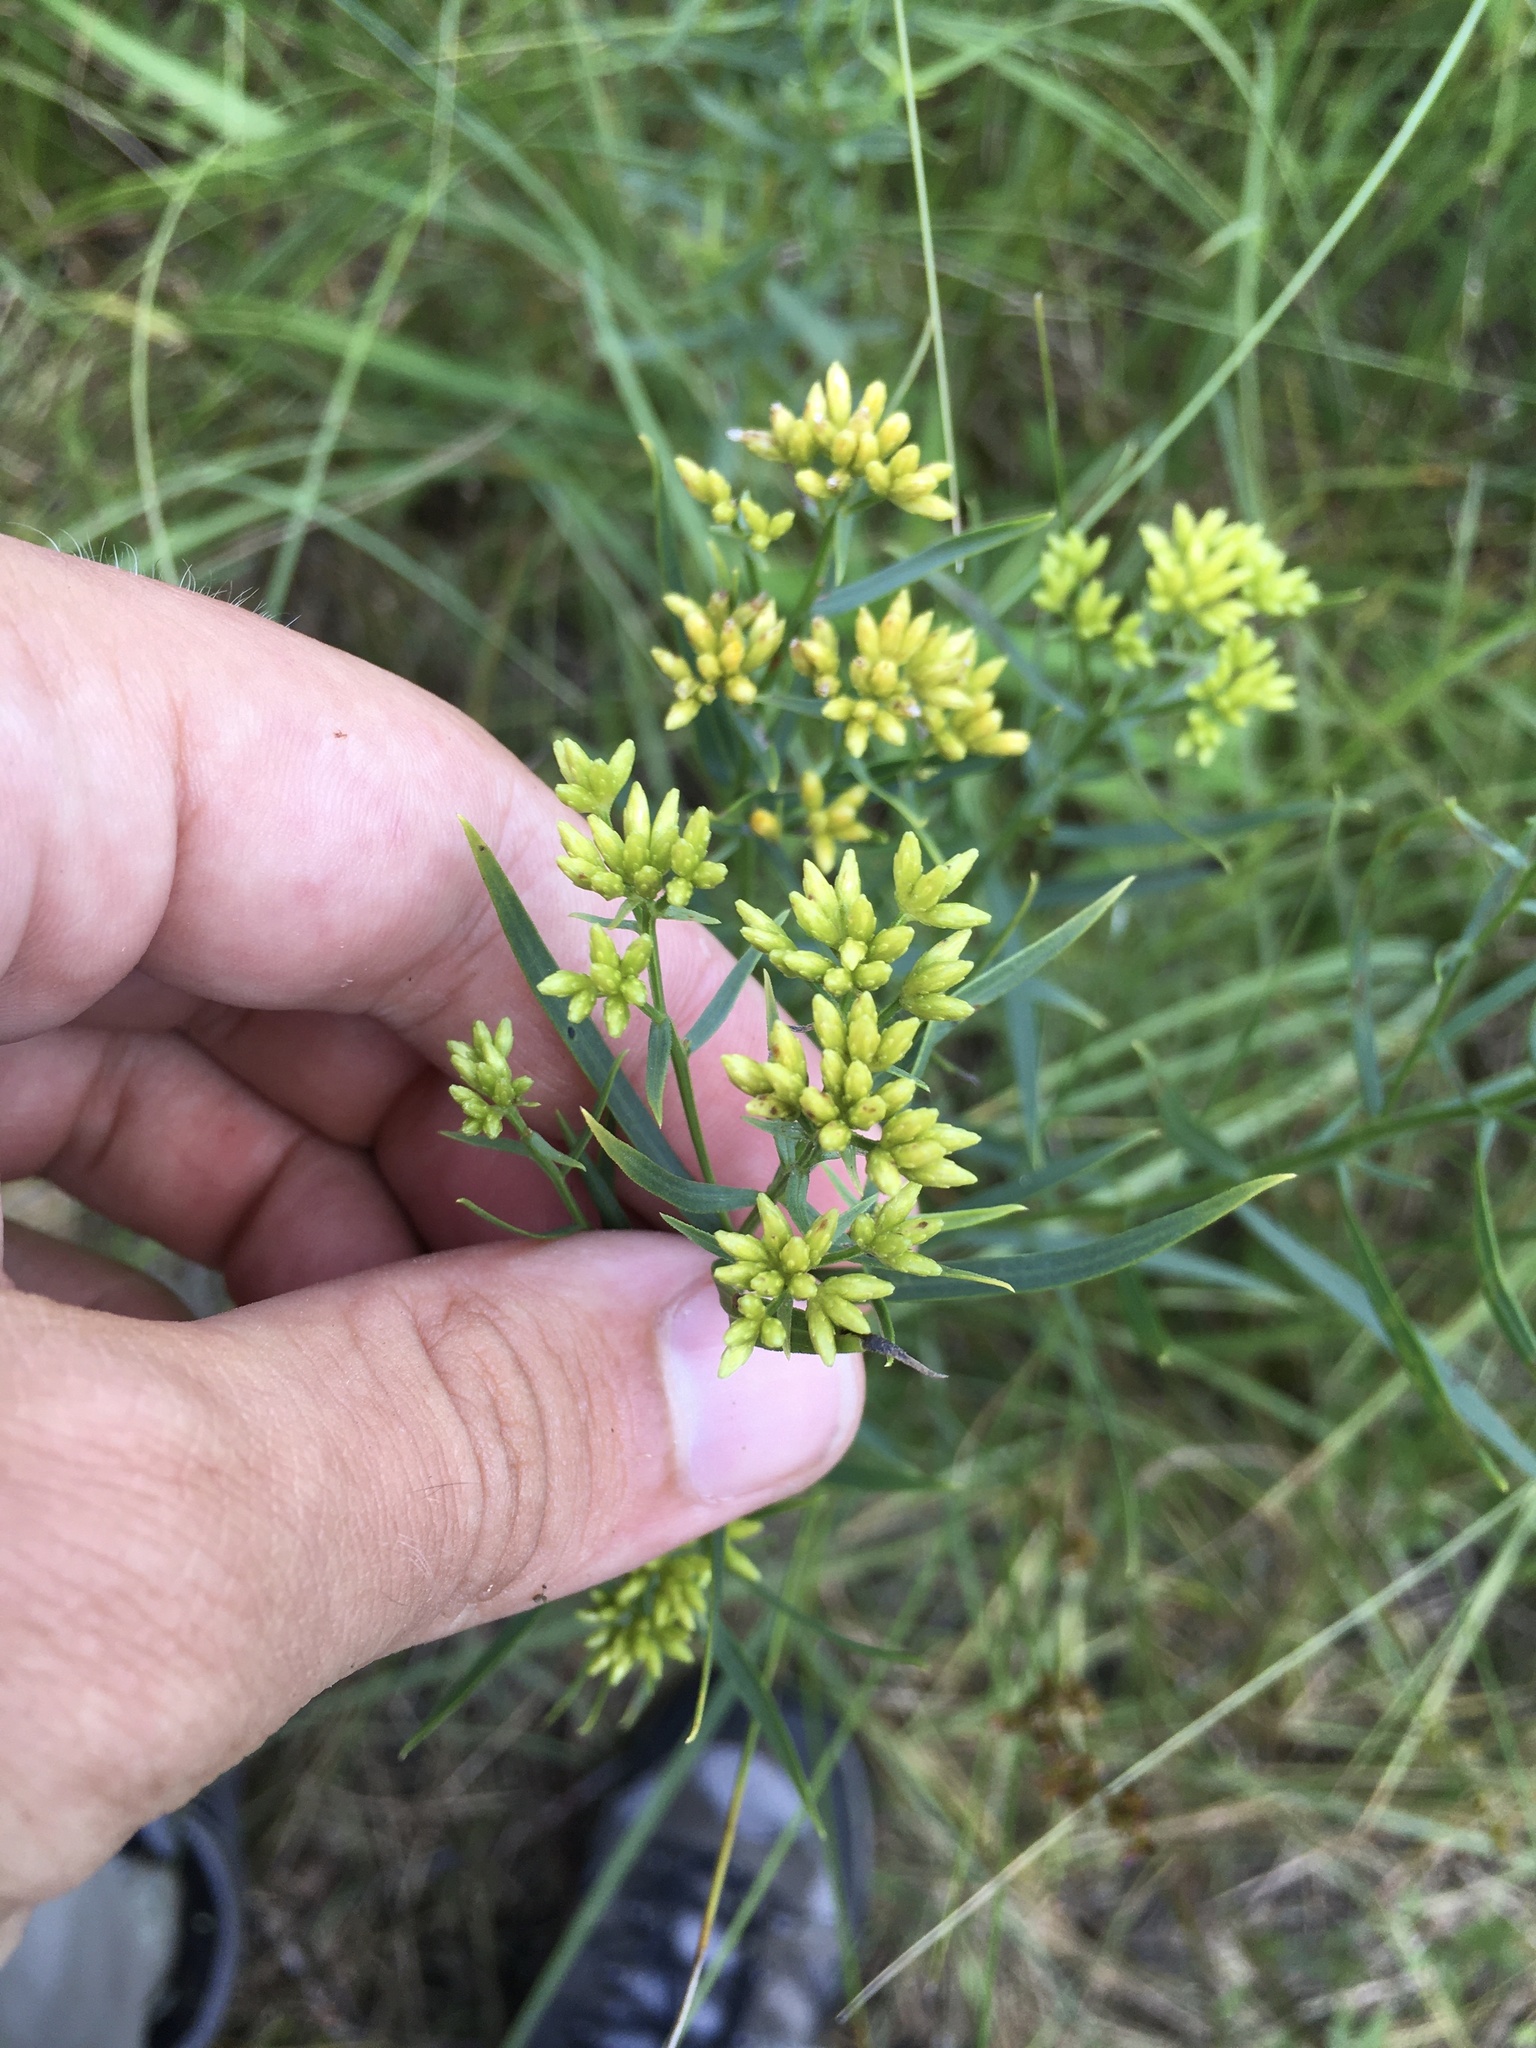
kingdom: Plantae
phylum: Tracheophyta
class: Magnoliopsida
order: Asterales
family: Asteraceae
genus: Euthamia
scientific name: Euthamia graminifolia
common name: Common goldentop
